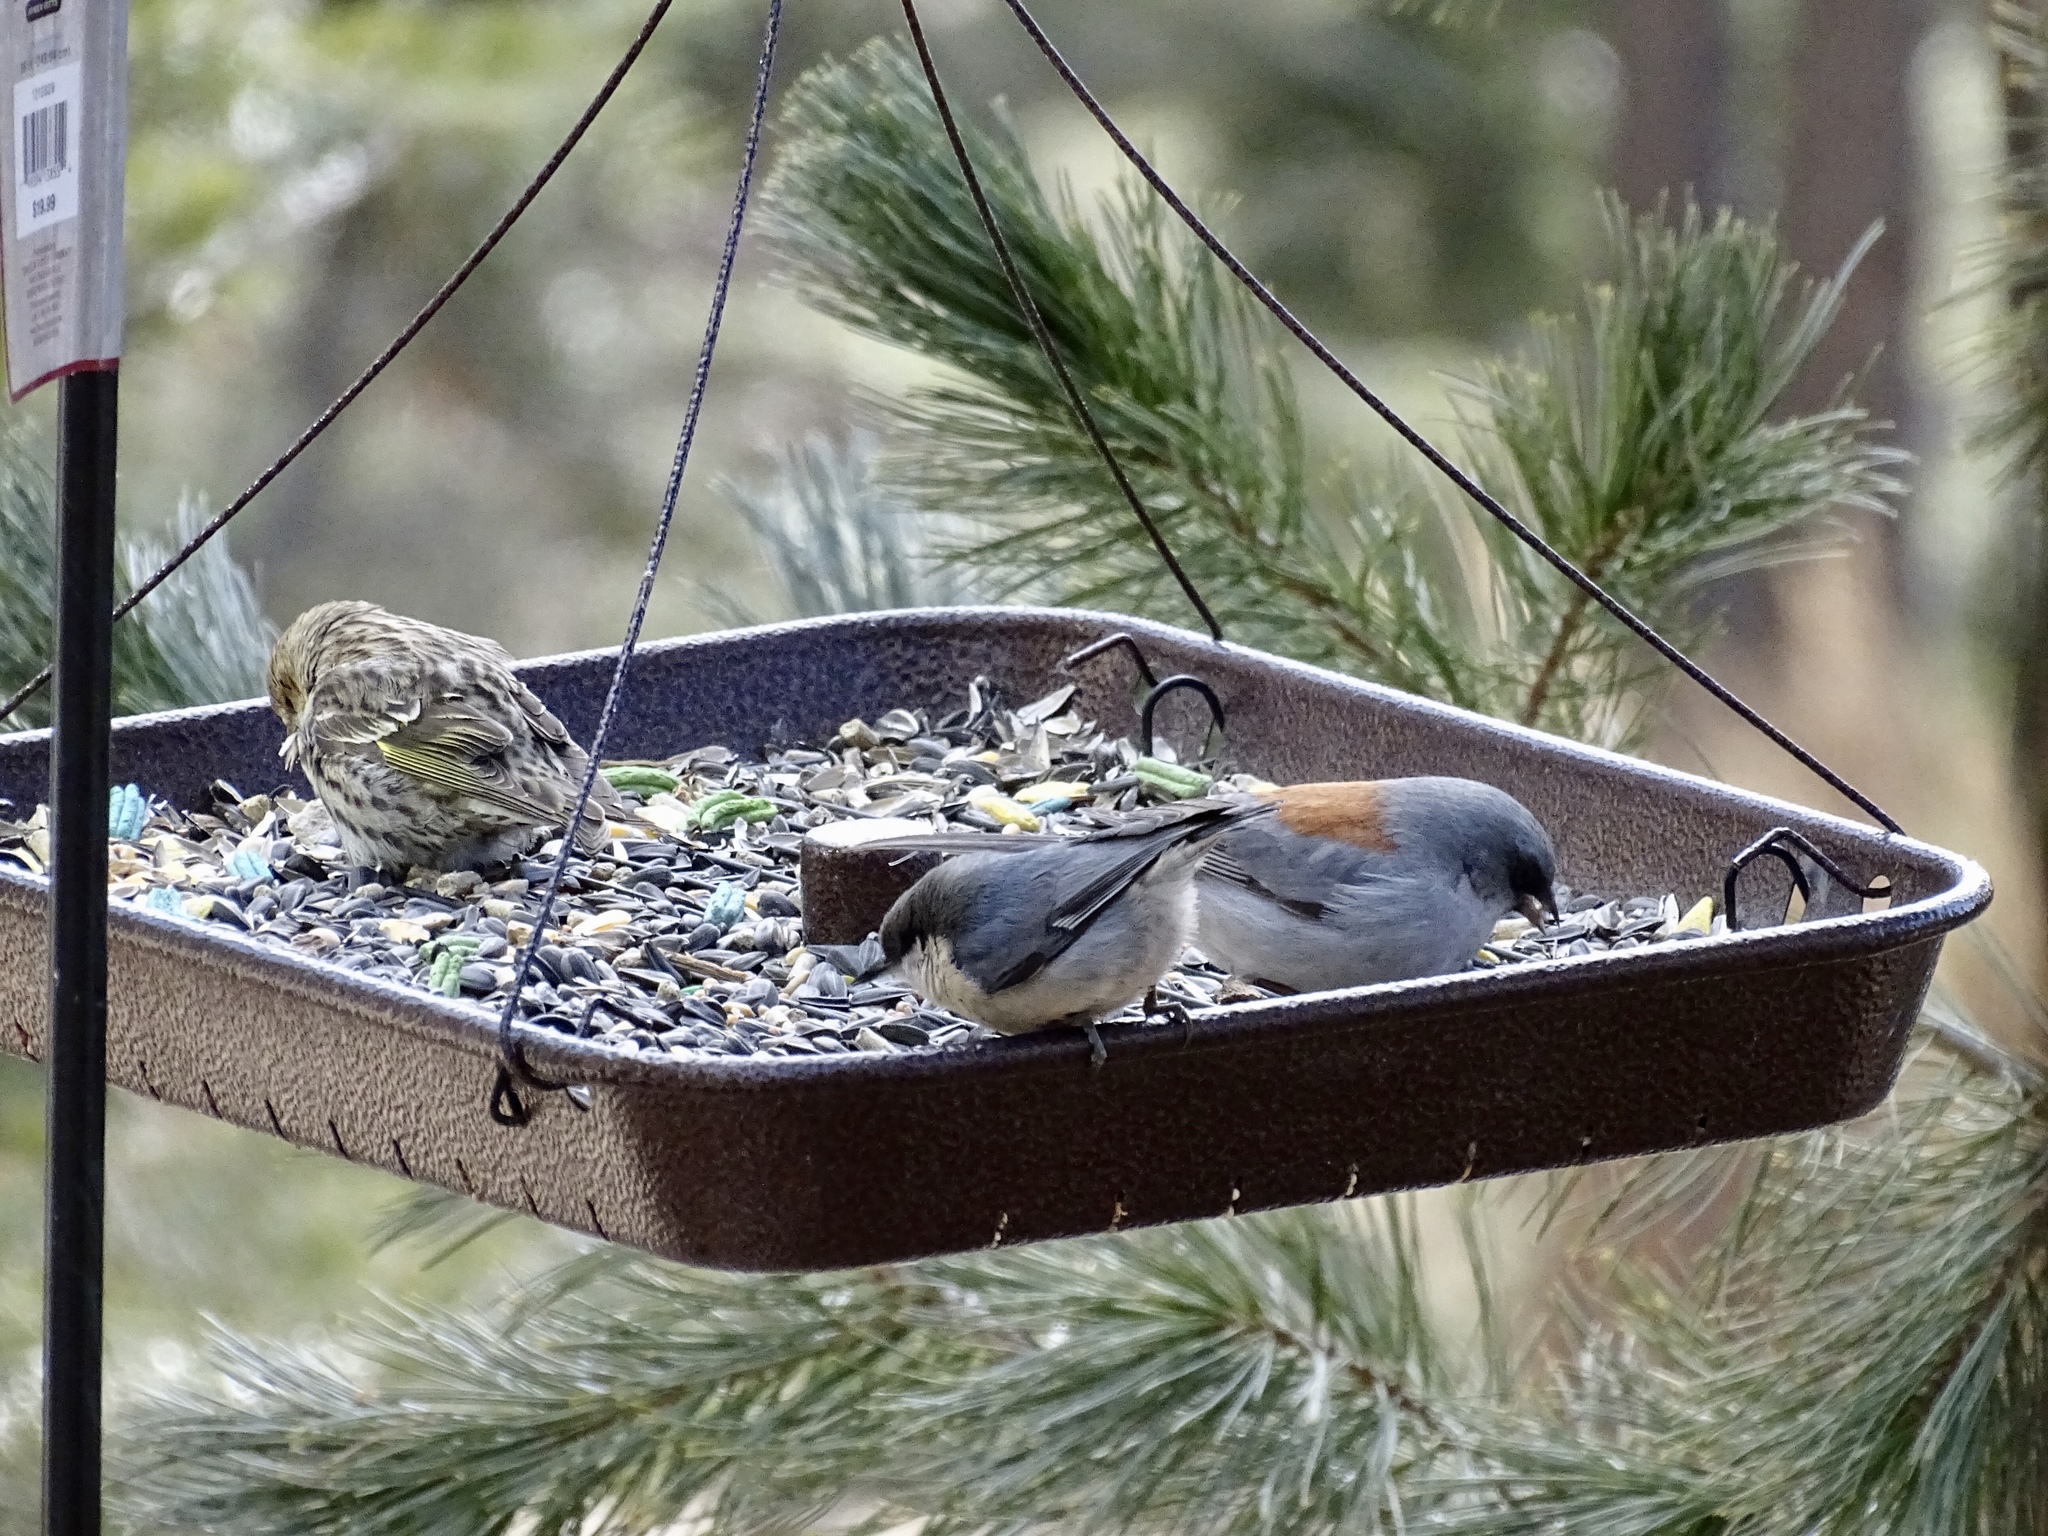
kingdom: Animalia
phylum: Chordata
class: Aves
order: Passeriformes
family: Fringillidae
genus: Spinus
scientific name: Spinus pinus
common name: Pine siskin
